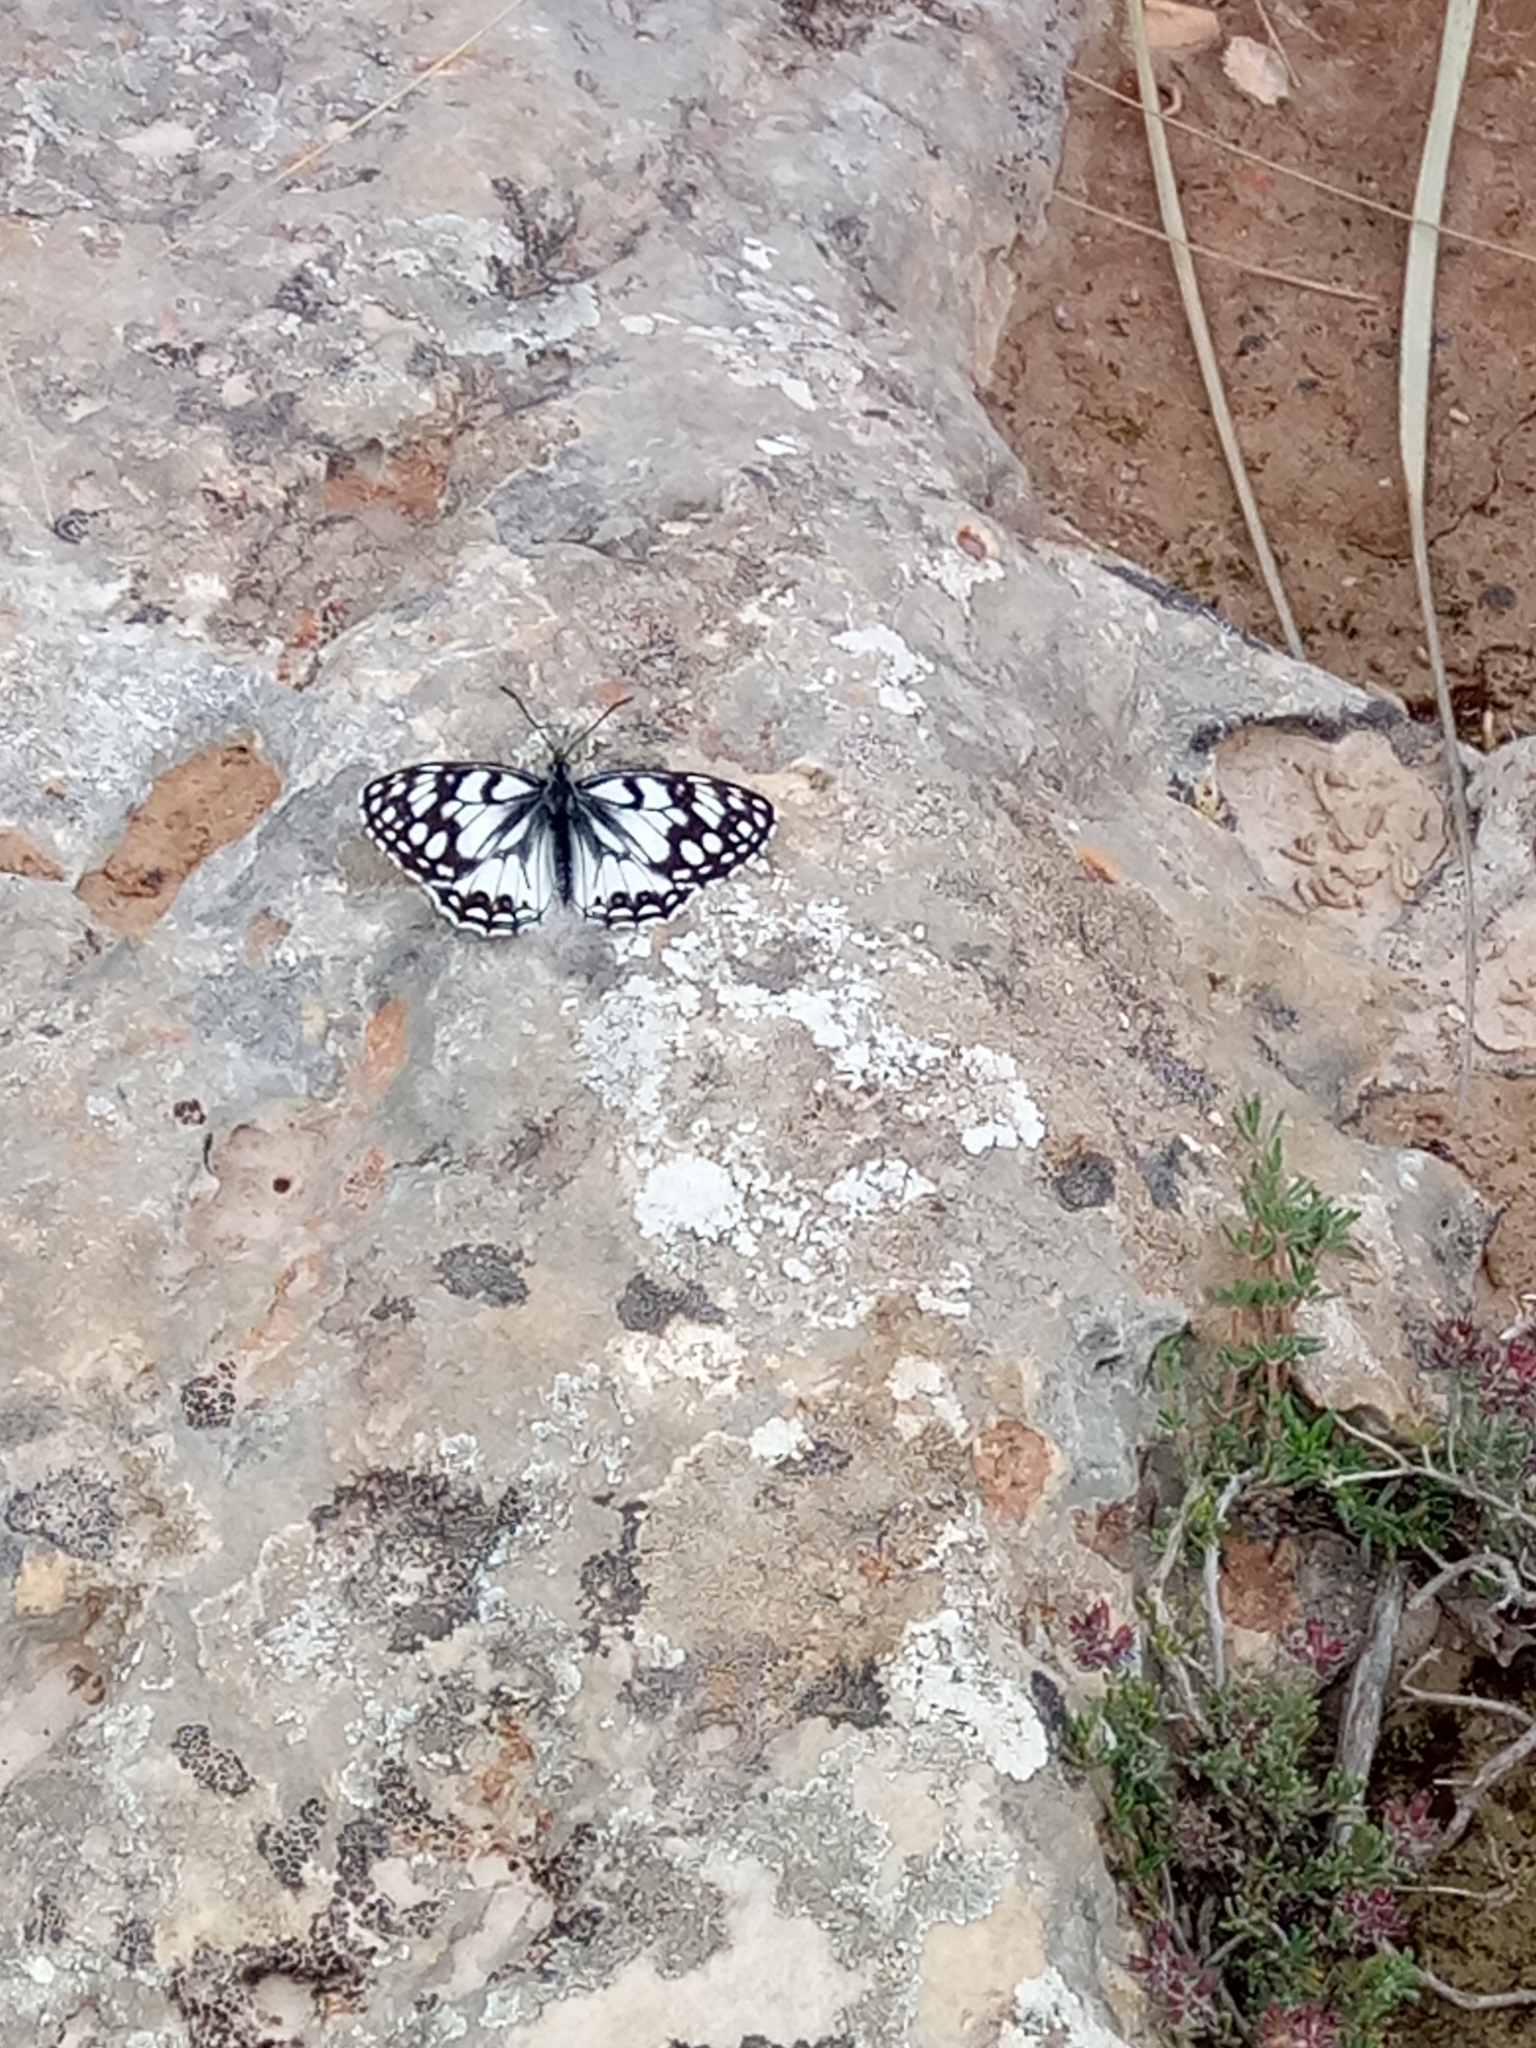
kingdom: Animalia
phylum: Arthropoda
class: Insecta
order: Lepidoptera
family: Nymphalidae
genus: Melanargia
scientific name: Melanargia ines
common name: Spanish marbled white
